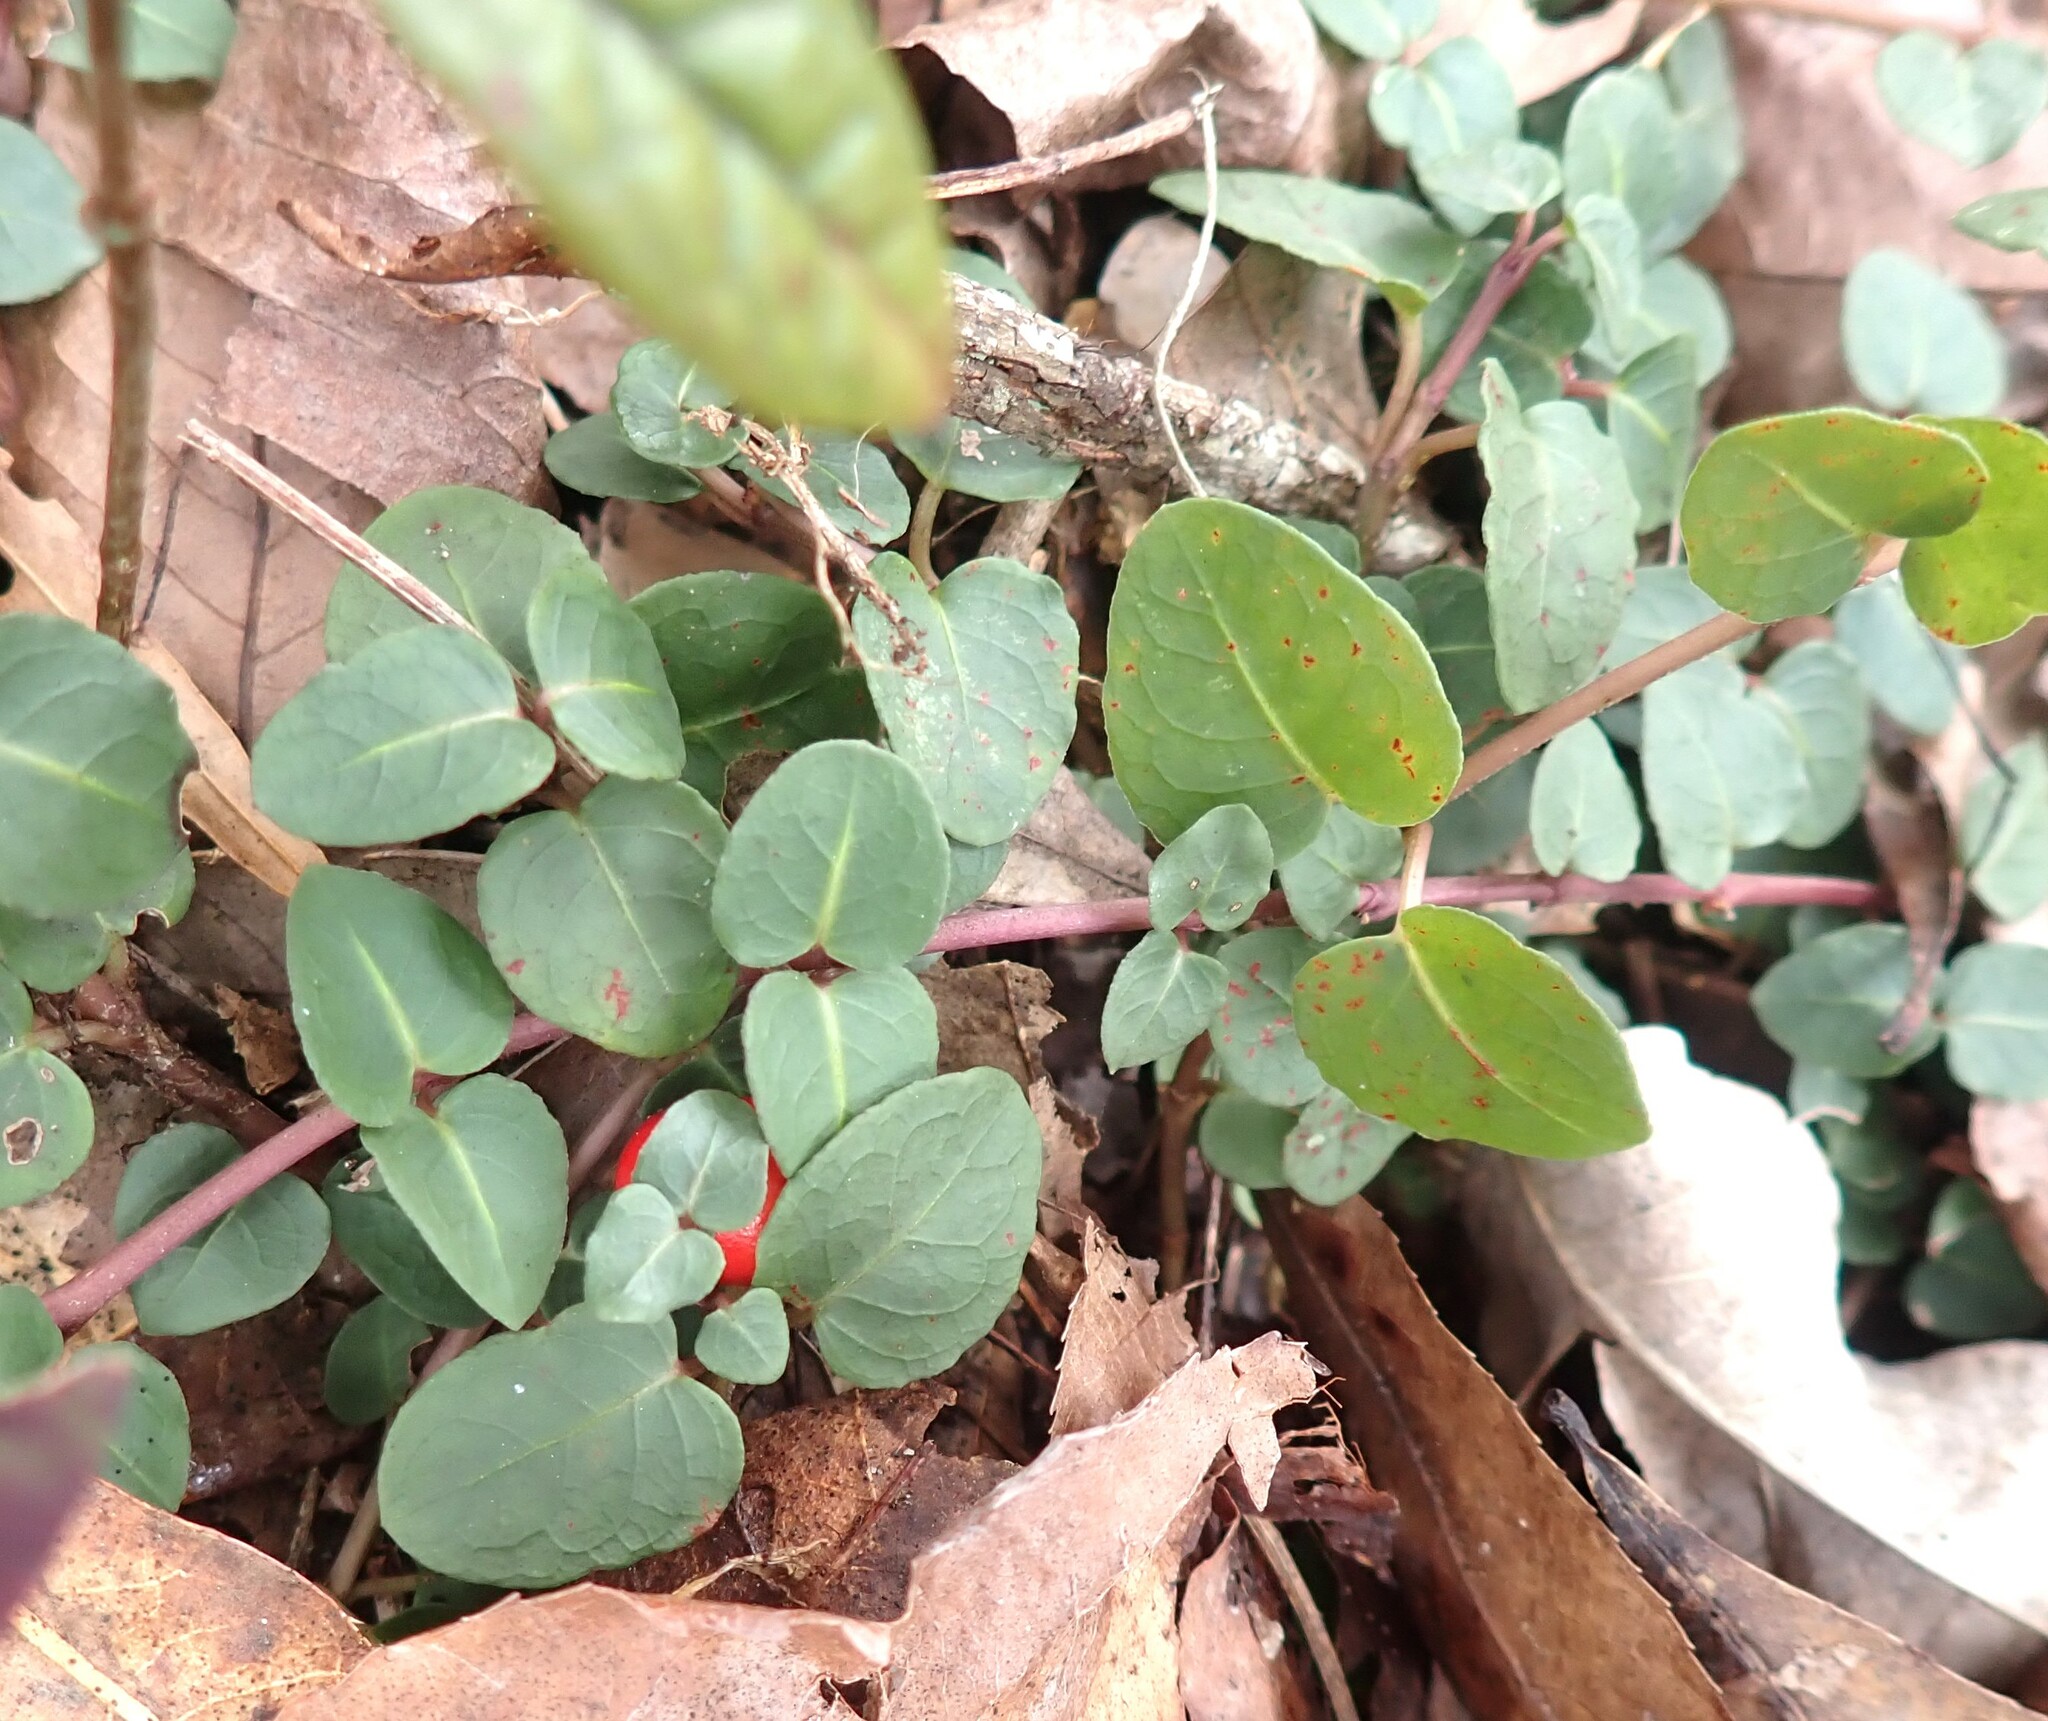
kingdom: Plantae
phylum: Tracheophyta
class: Magnoliopsida
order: Gentianales
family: Rubiaceae
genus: Mitchella
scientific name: Mitchella repens
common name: Partridge-berry
